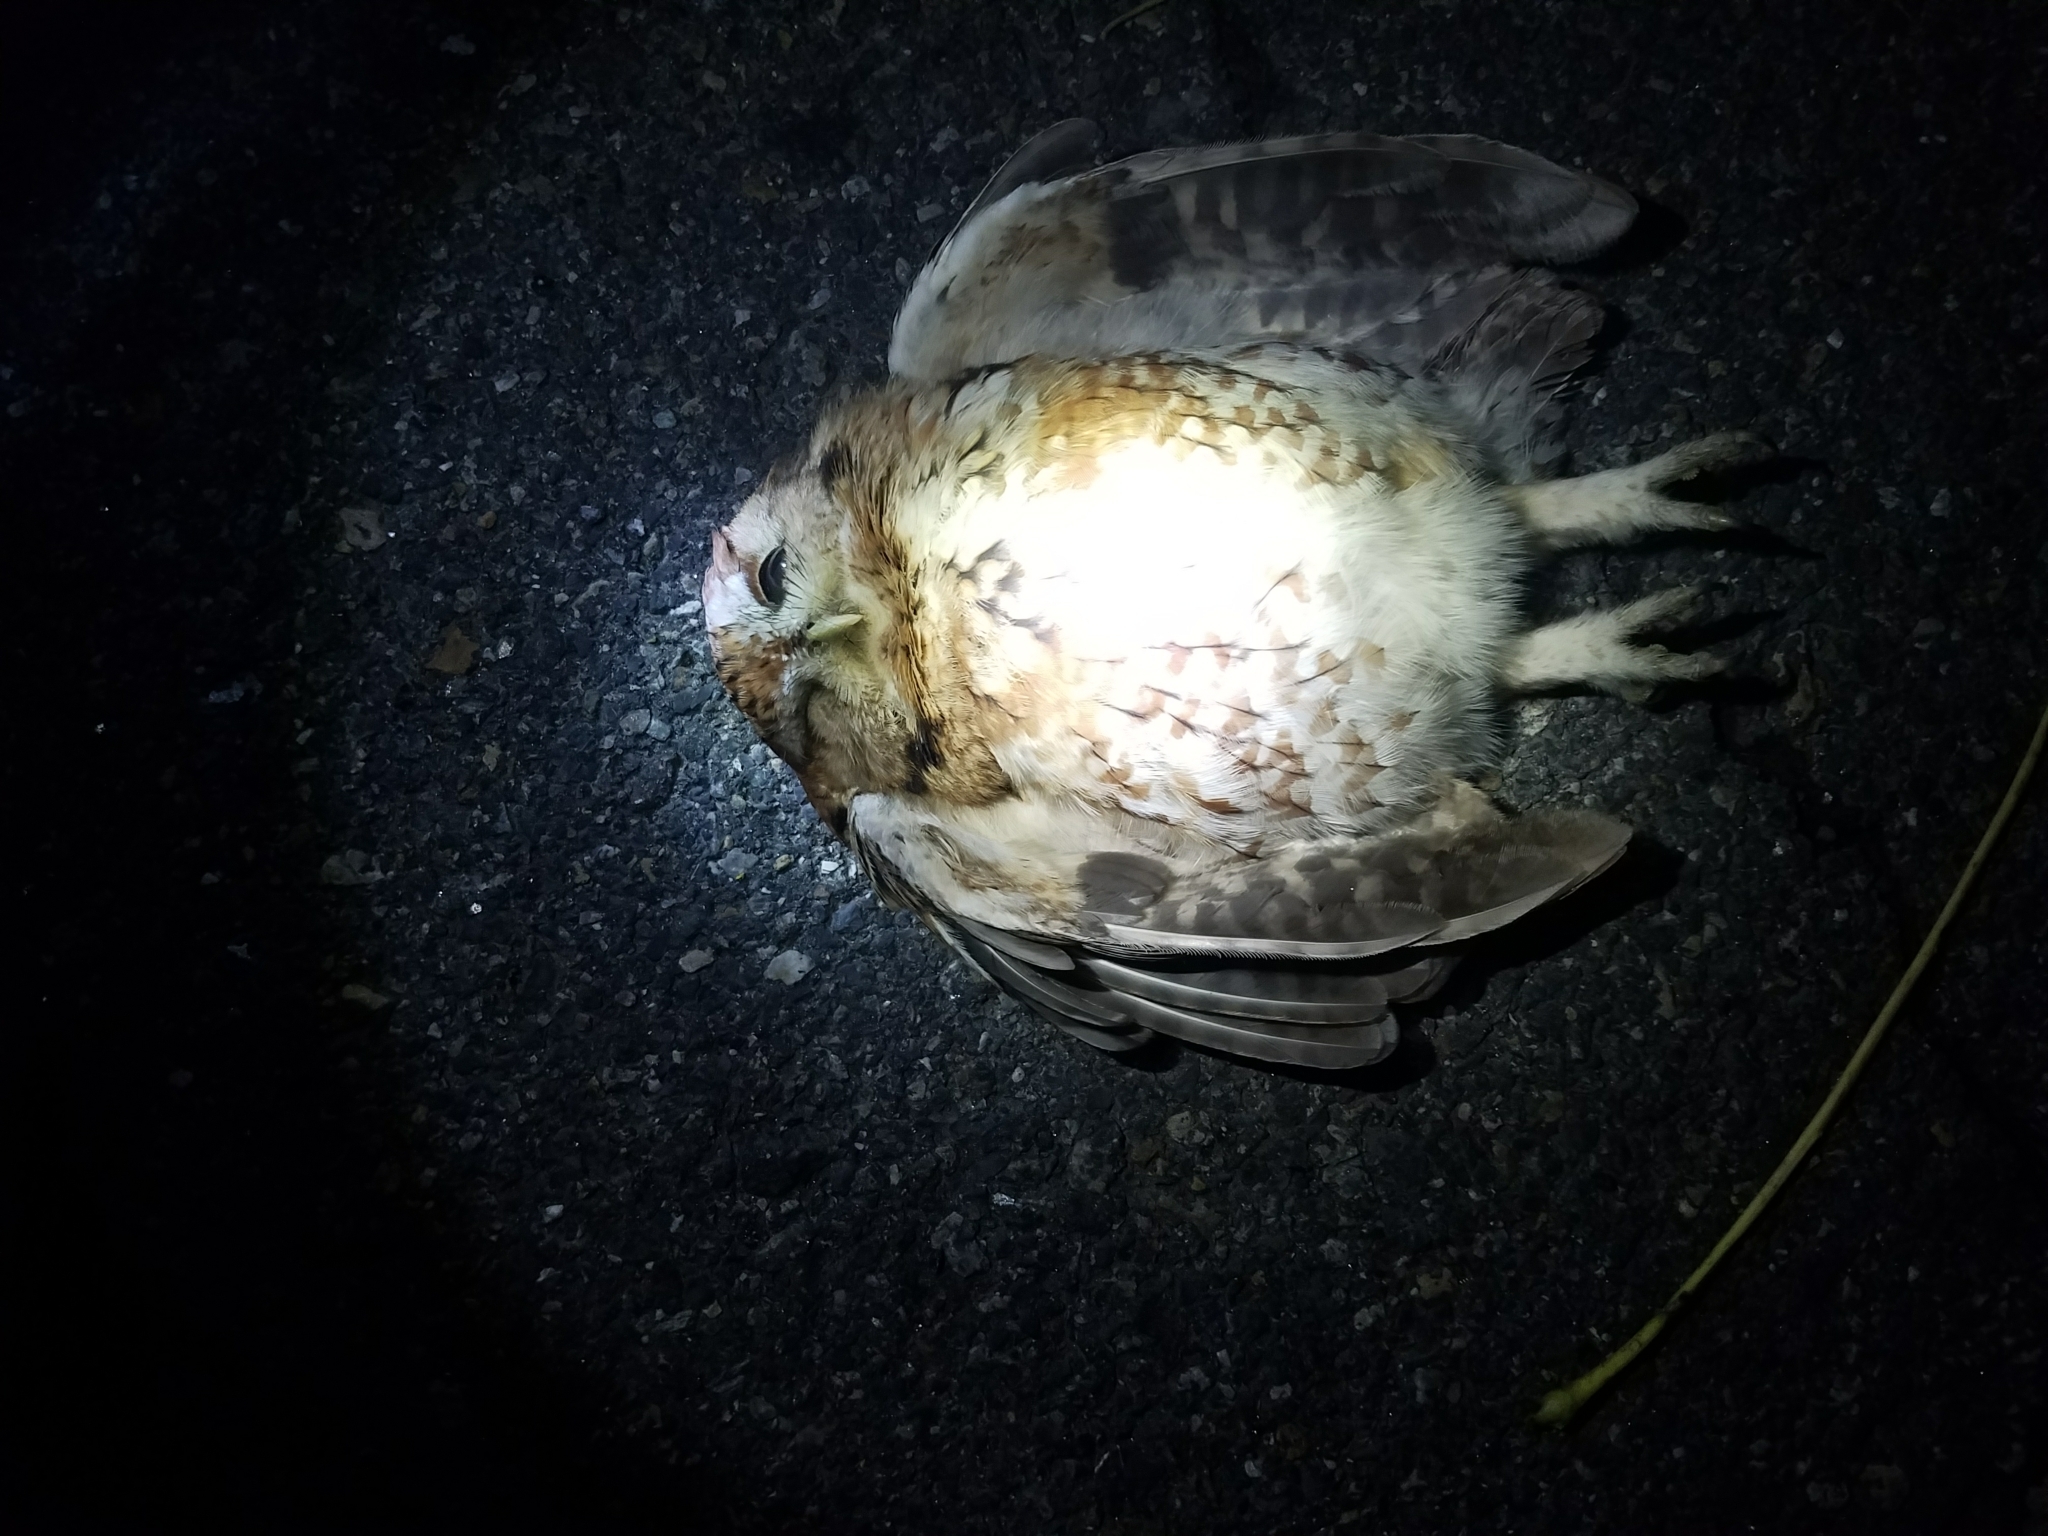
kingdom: Animalia
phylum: Chordata
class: Aves
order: Strigiformes
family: Strigidae
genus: Megascops
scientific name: Megascops asio
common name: Eastern screech-owl
